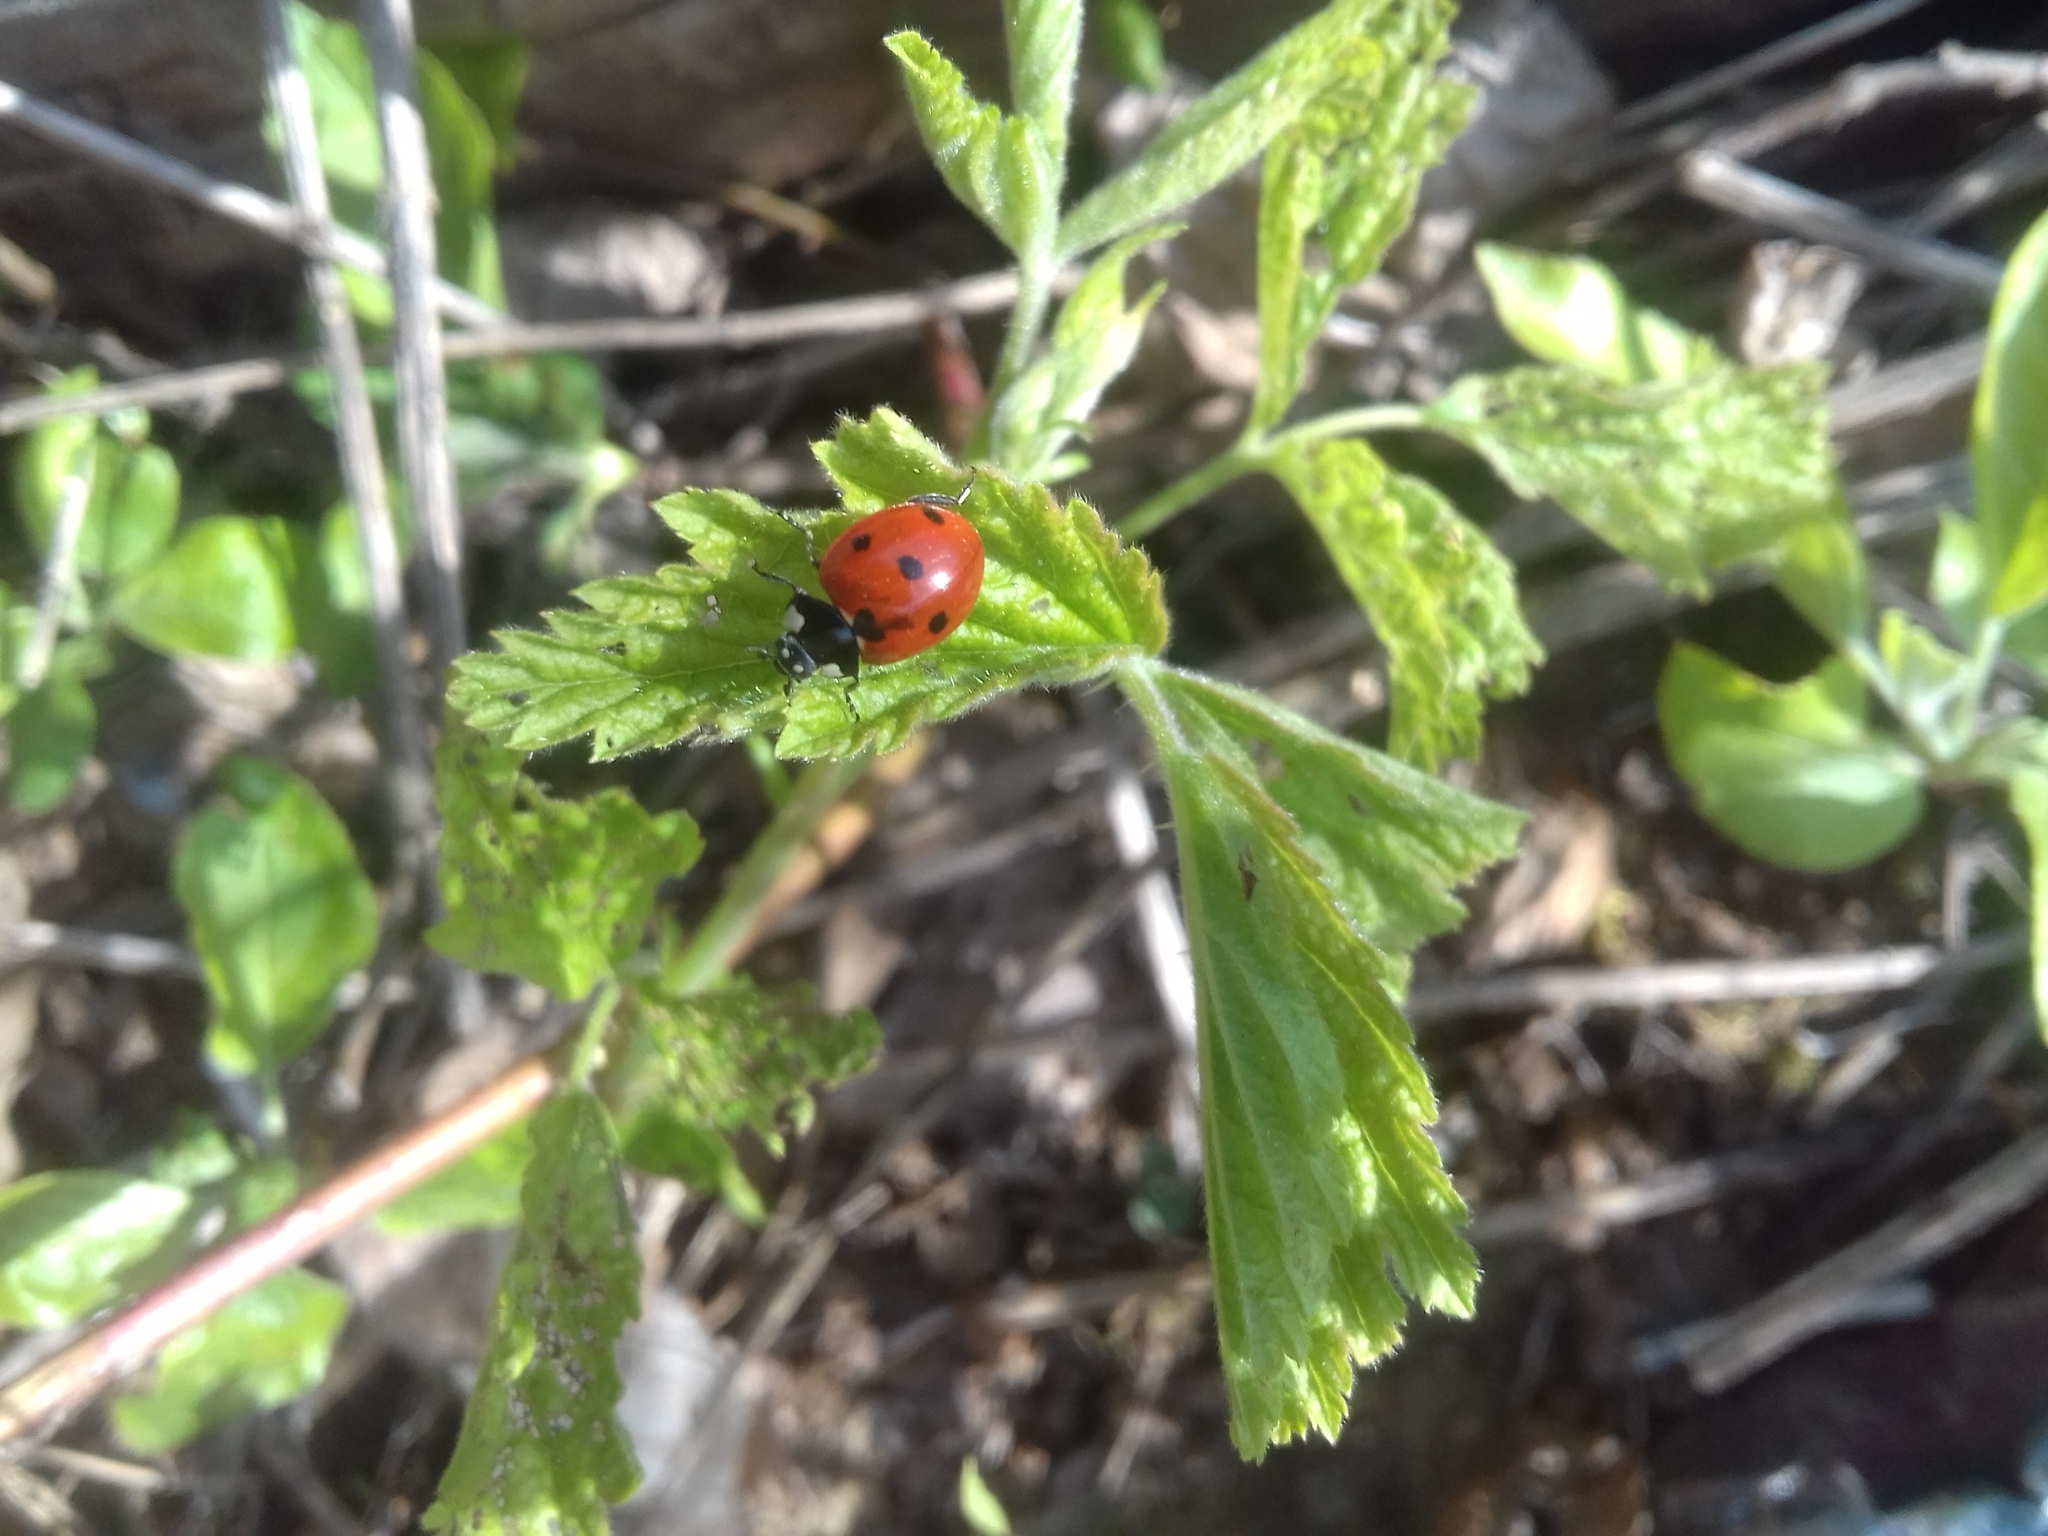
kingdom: Animalia
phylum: Arthropoda
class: Insecta
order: Coleoptera
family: Coccinellidae
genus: Coccinella
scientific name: Coccinella septempunctata
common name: Sevenspotted lady beetle
